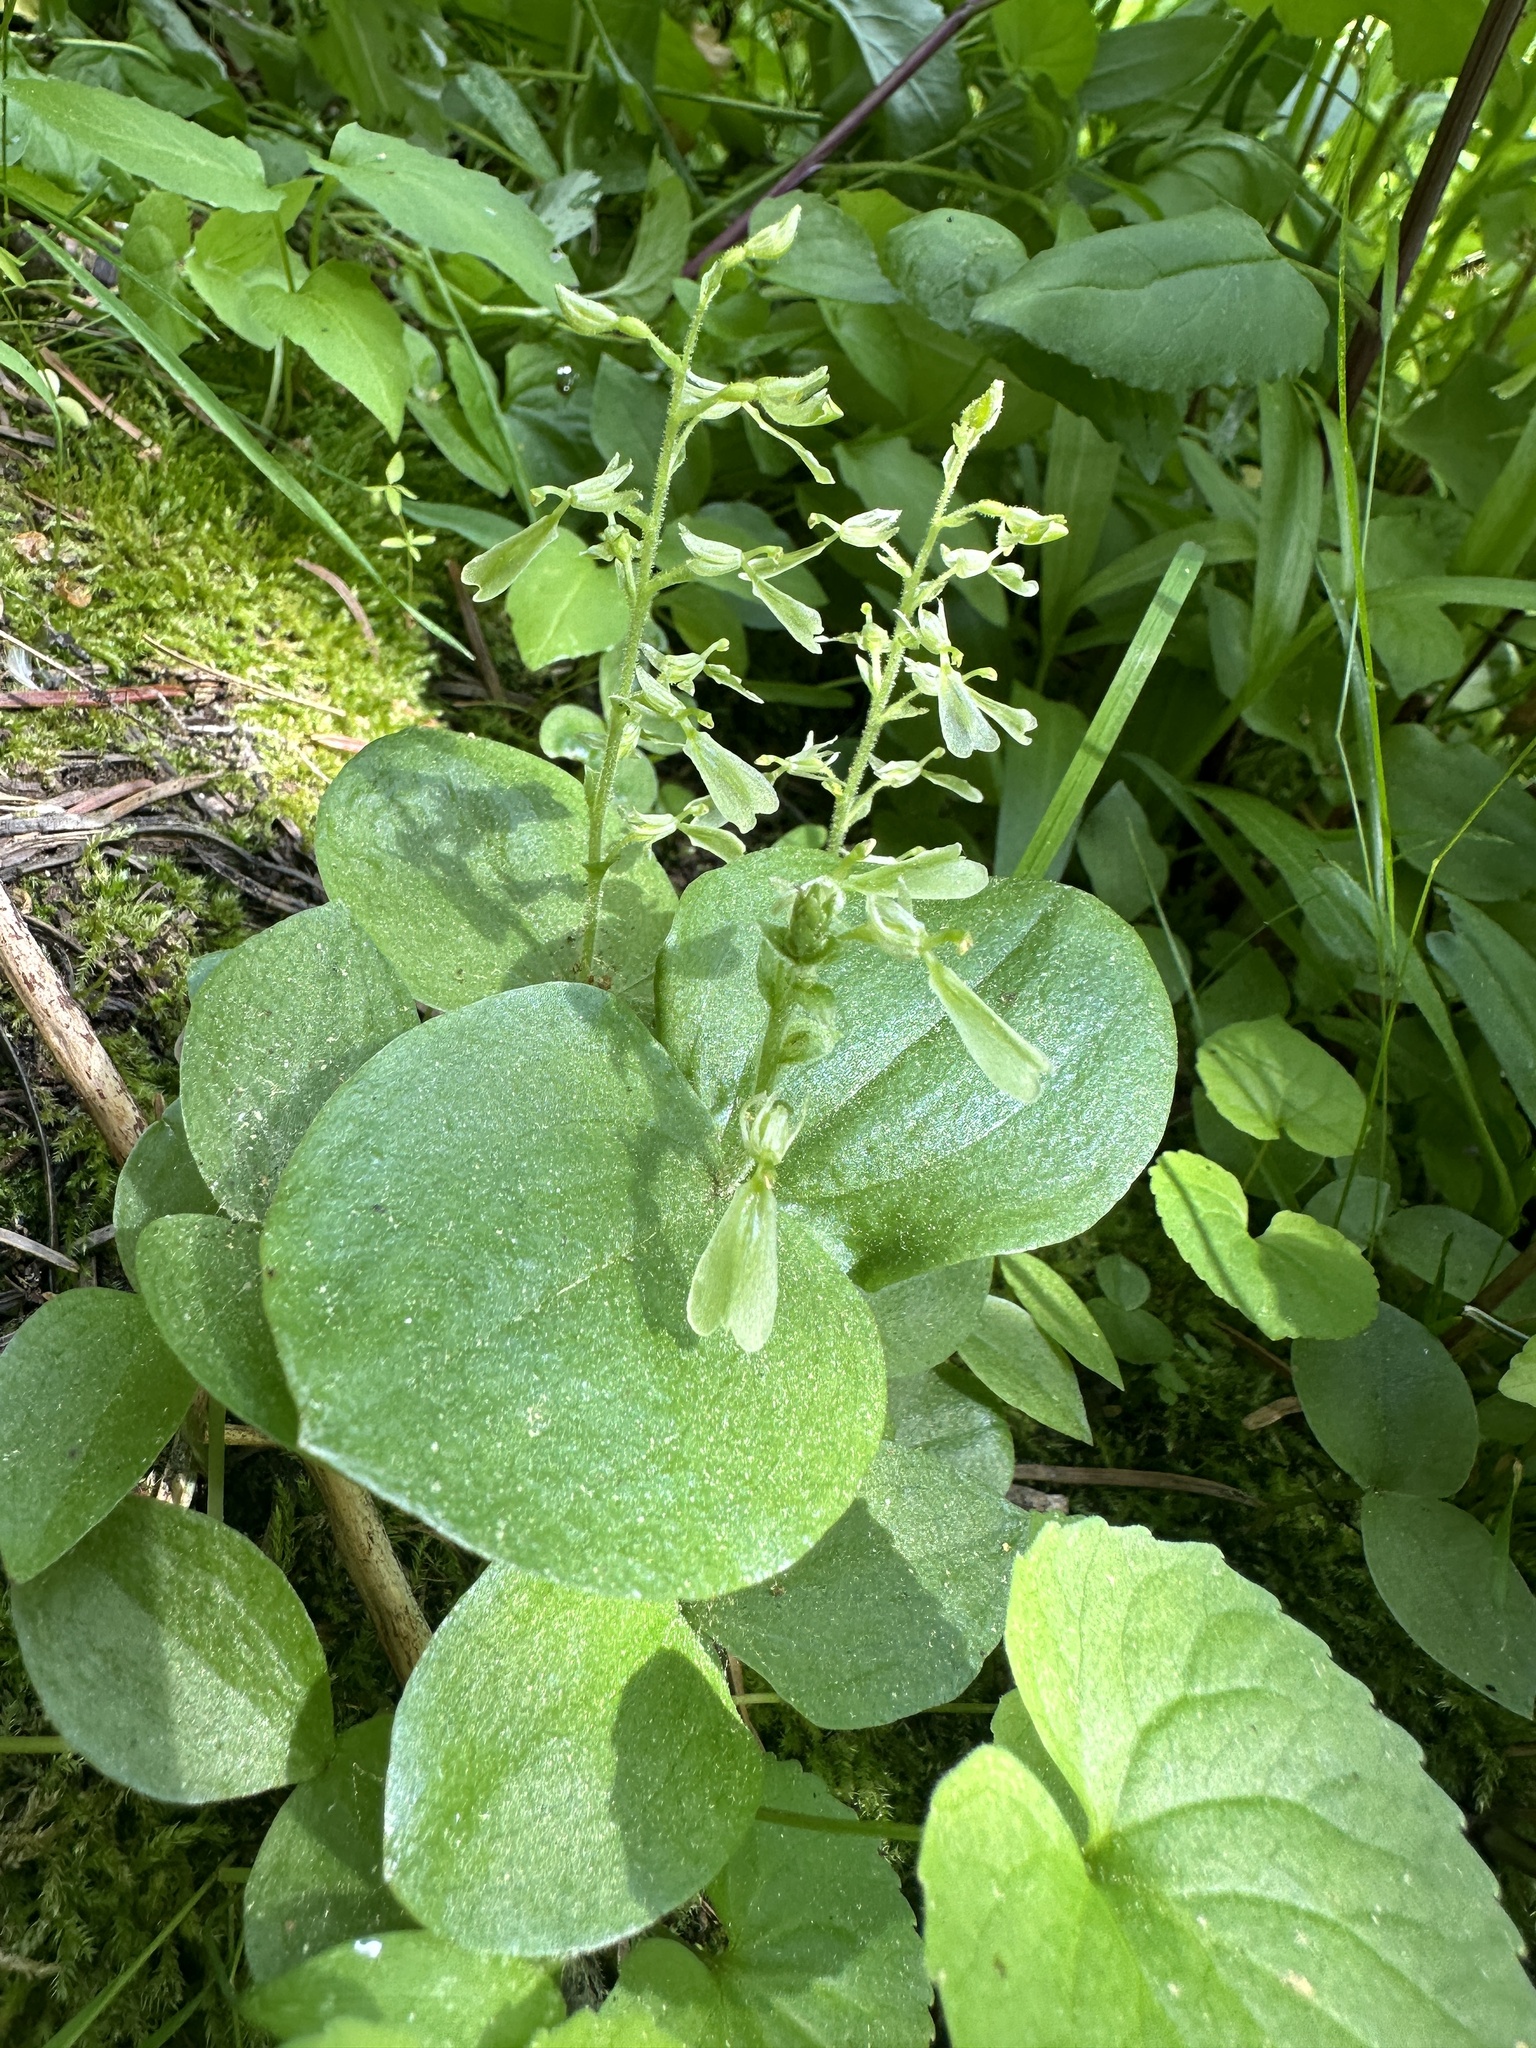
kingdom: Plantae
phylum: Tracheophyta
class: Liliopsida
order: Asparagales
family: Orchidaceae
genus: Neottia
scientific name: Neottia convallarioides
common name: Broadleaf twayblade
